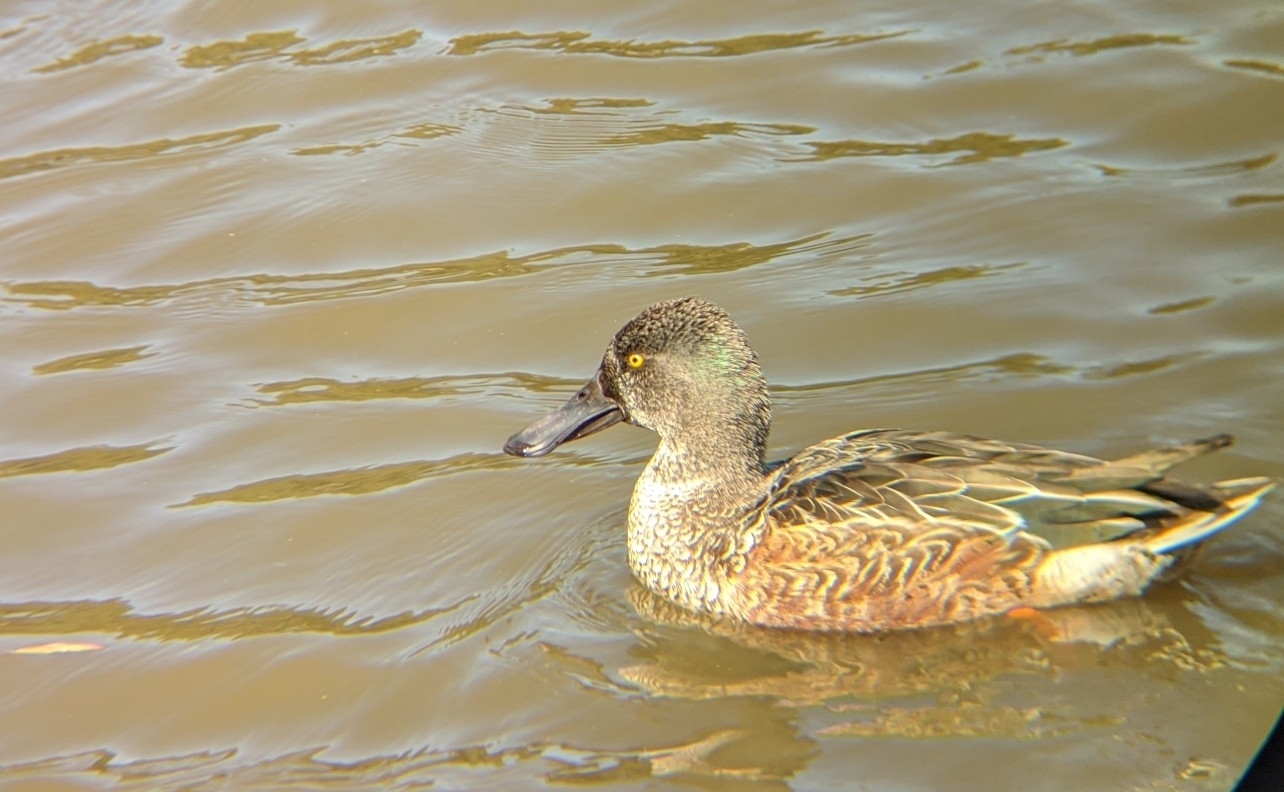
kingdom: Animalia
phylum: Chordata
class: Aves
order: Anseriformes
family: Anatidae
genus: Spatula
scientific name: Spatula clypeata
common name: Northern shoveler
